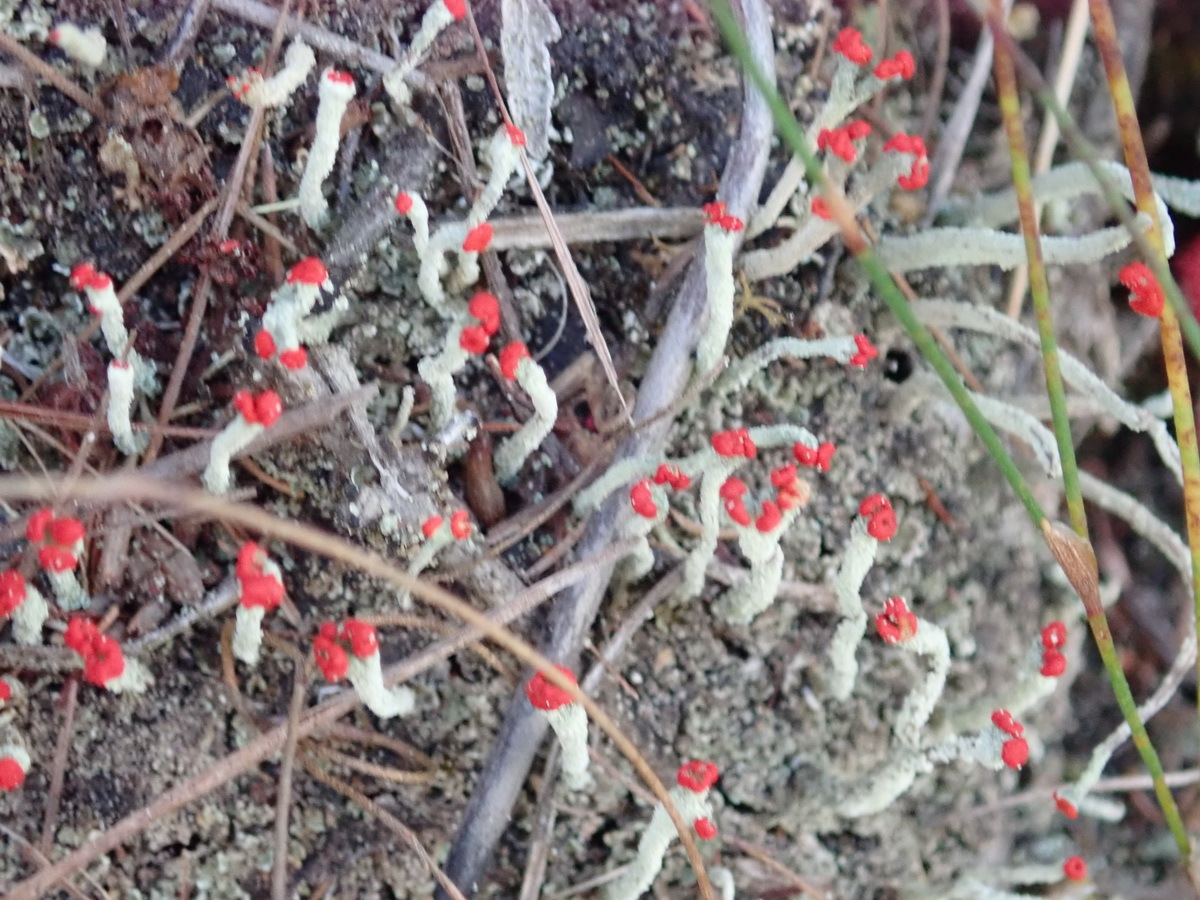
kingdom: Fungi
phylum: Ascomycota
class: Lecanoromycetes
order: Lecanorales
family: Cladoniaceae
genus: Cladonia
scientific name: Cladonia floerkeana
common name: Gritty british soldiers lichen
